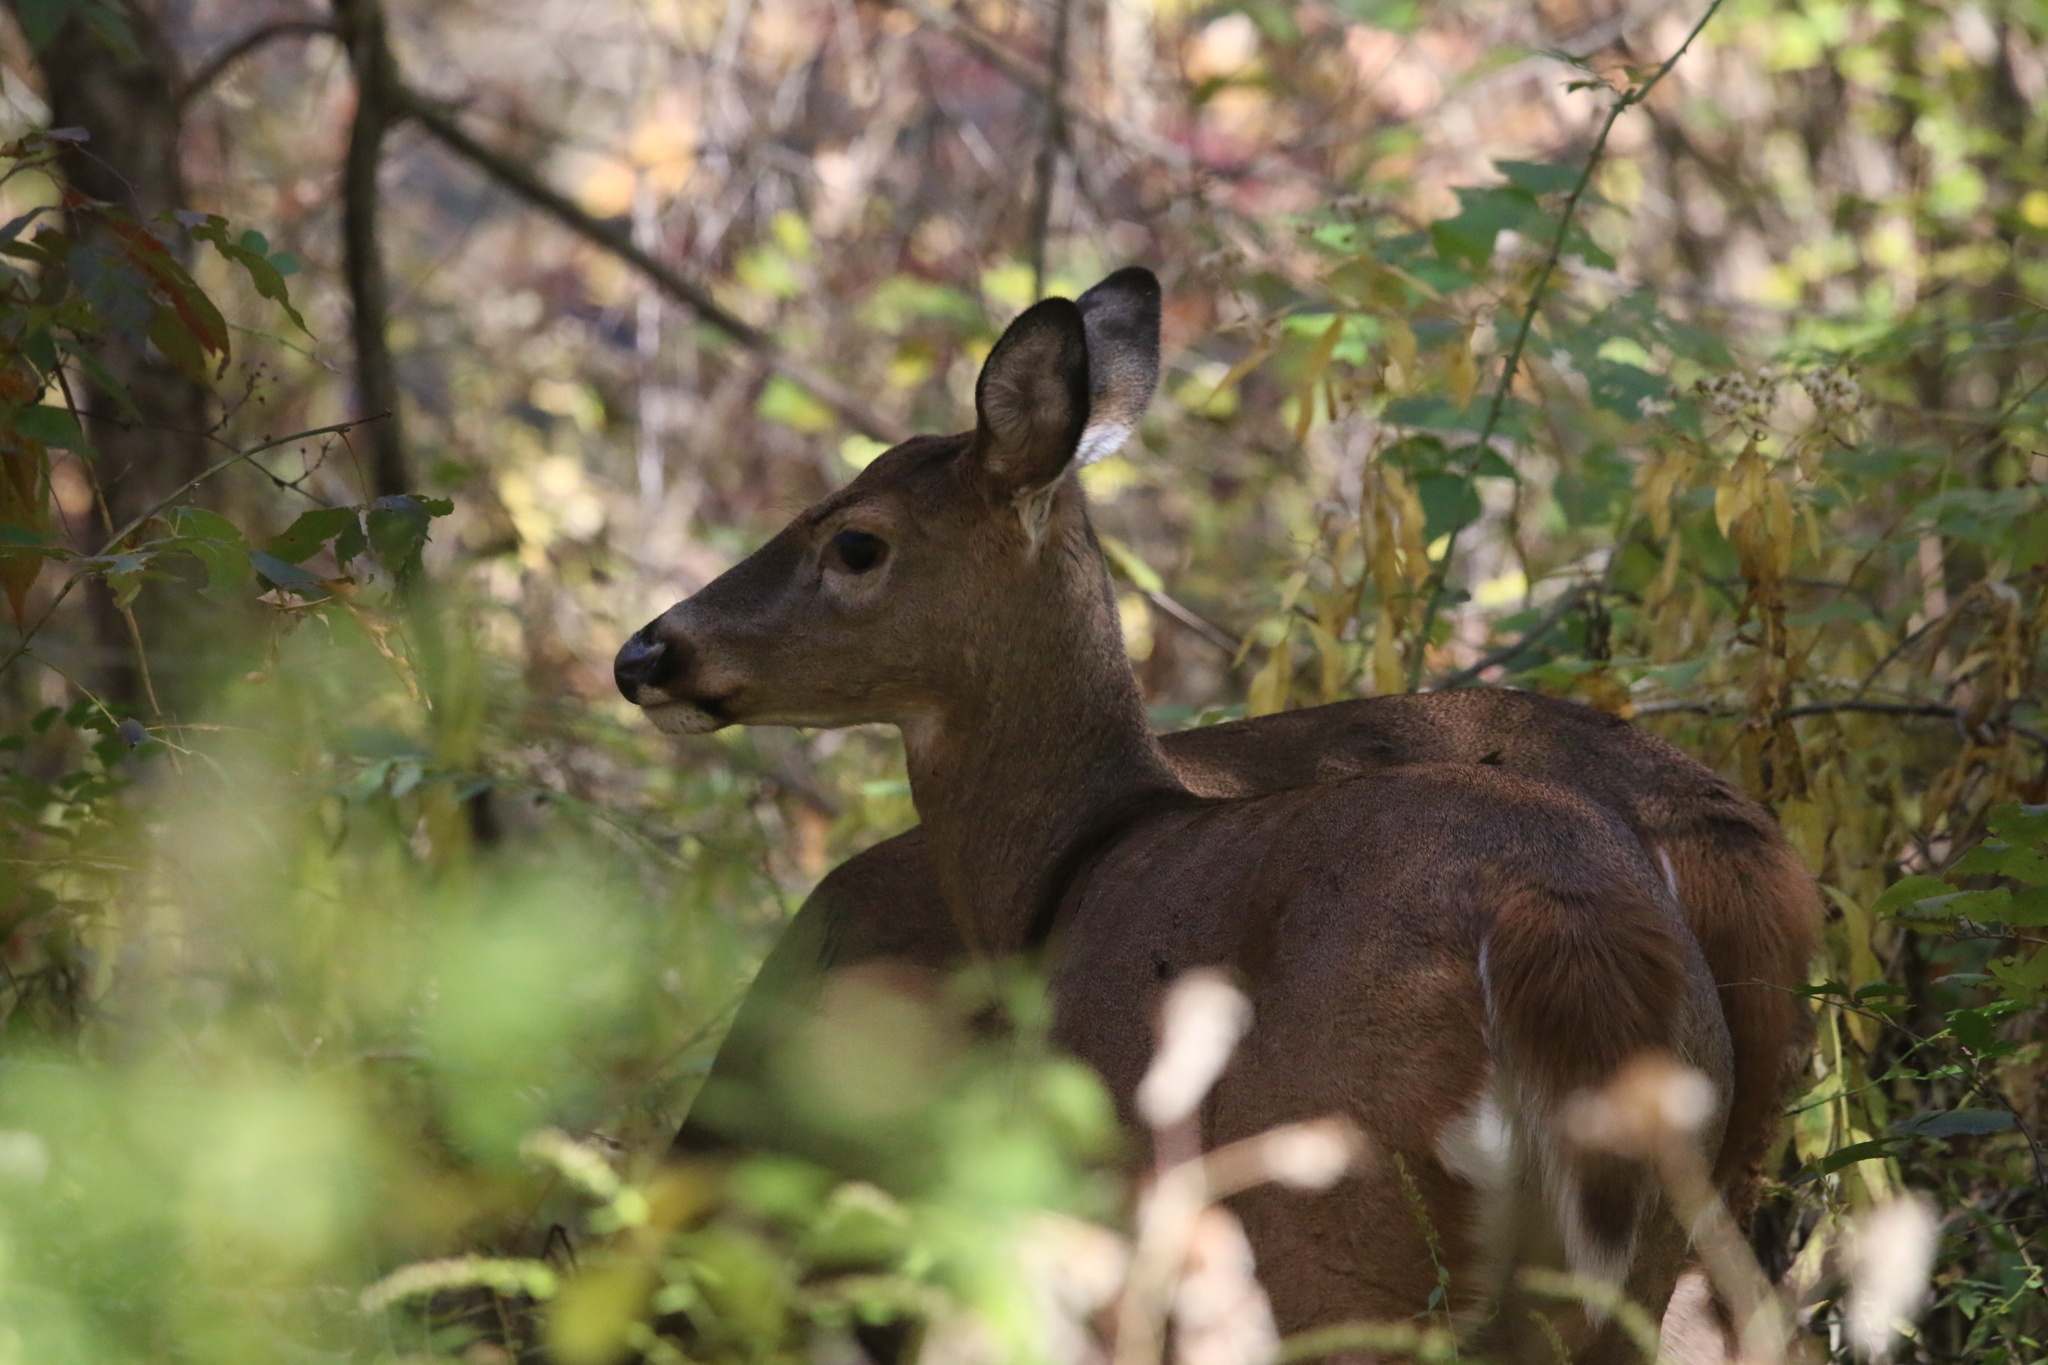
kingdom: Animalia
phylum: Chordata
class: Mammalia
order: Artiodactyla
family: Cervidae
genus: Odocoileus
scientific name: Odocoileus virginianus
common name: White-tailed deer
